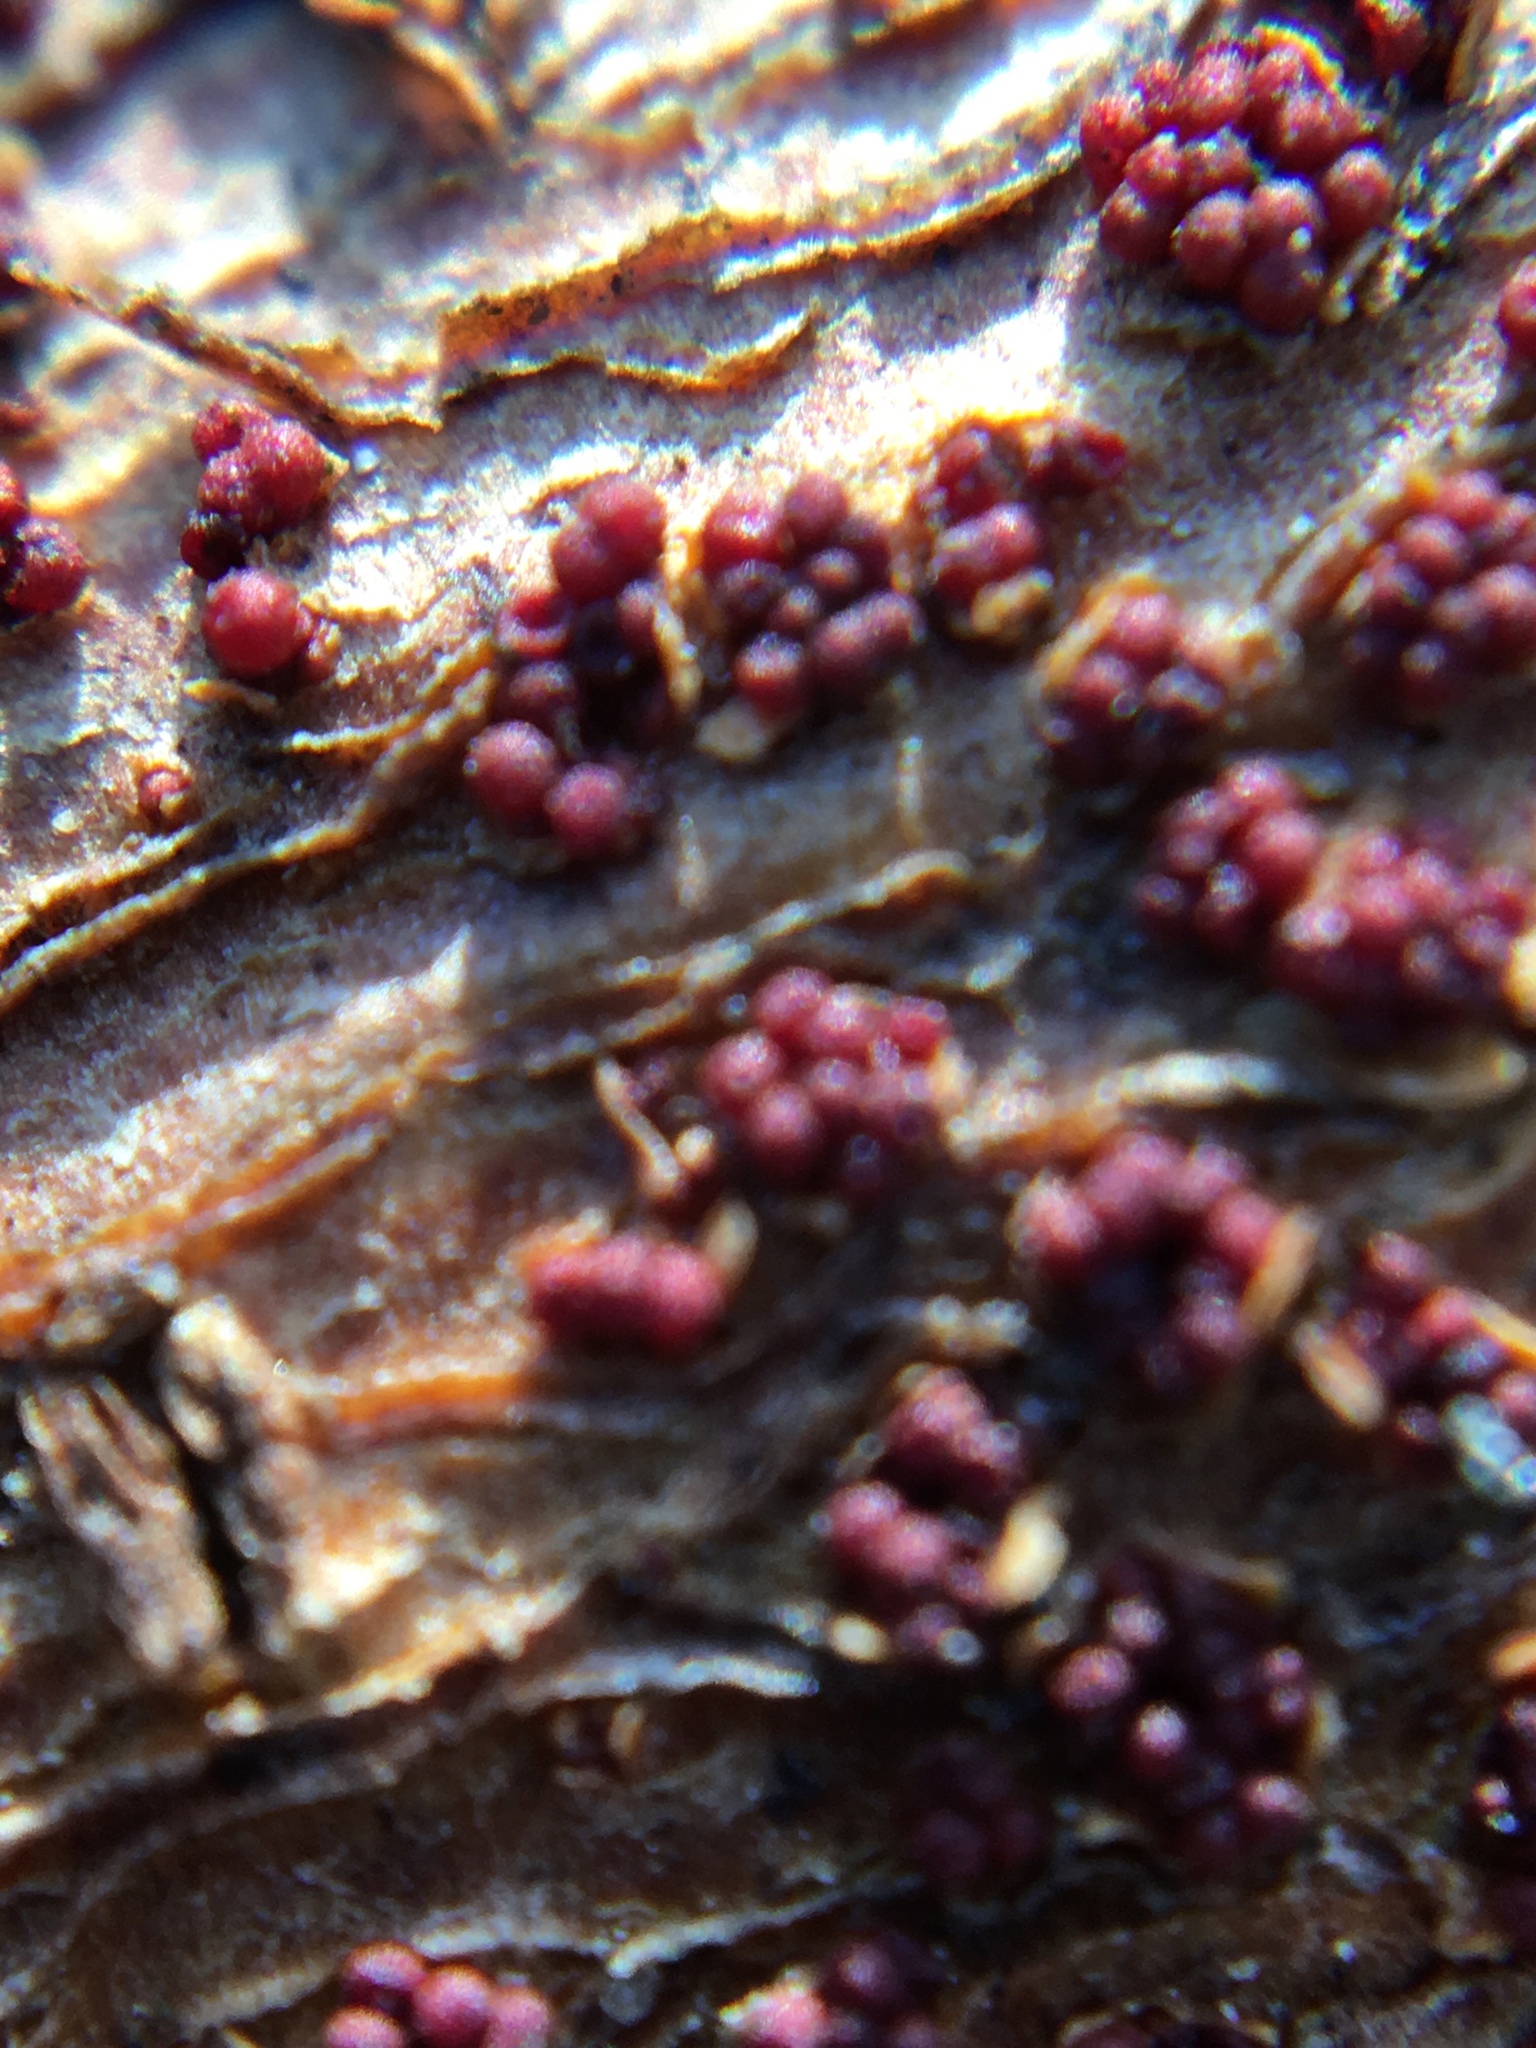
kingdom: Fungi
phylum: Ascomycota
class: Sordariomycetes
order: Hypocreales
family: Nectriaceae
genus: Nectria
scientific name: Nectria cinnabarina
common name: Coral spot
